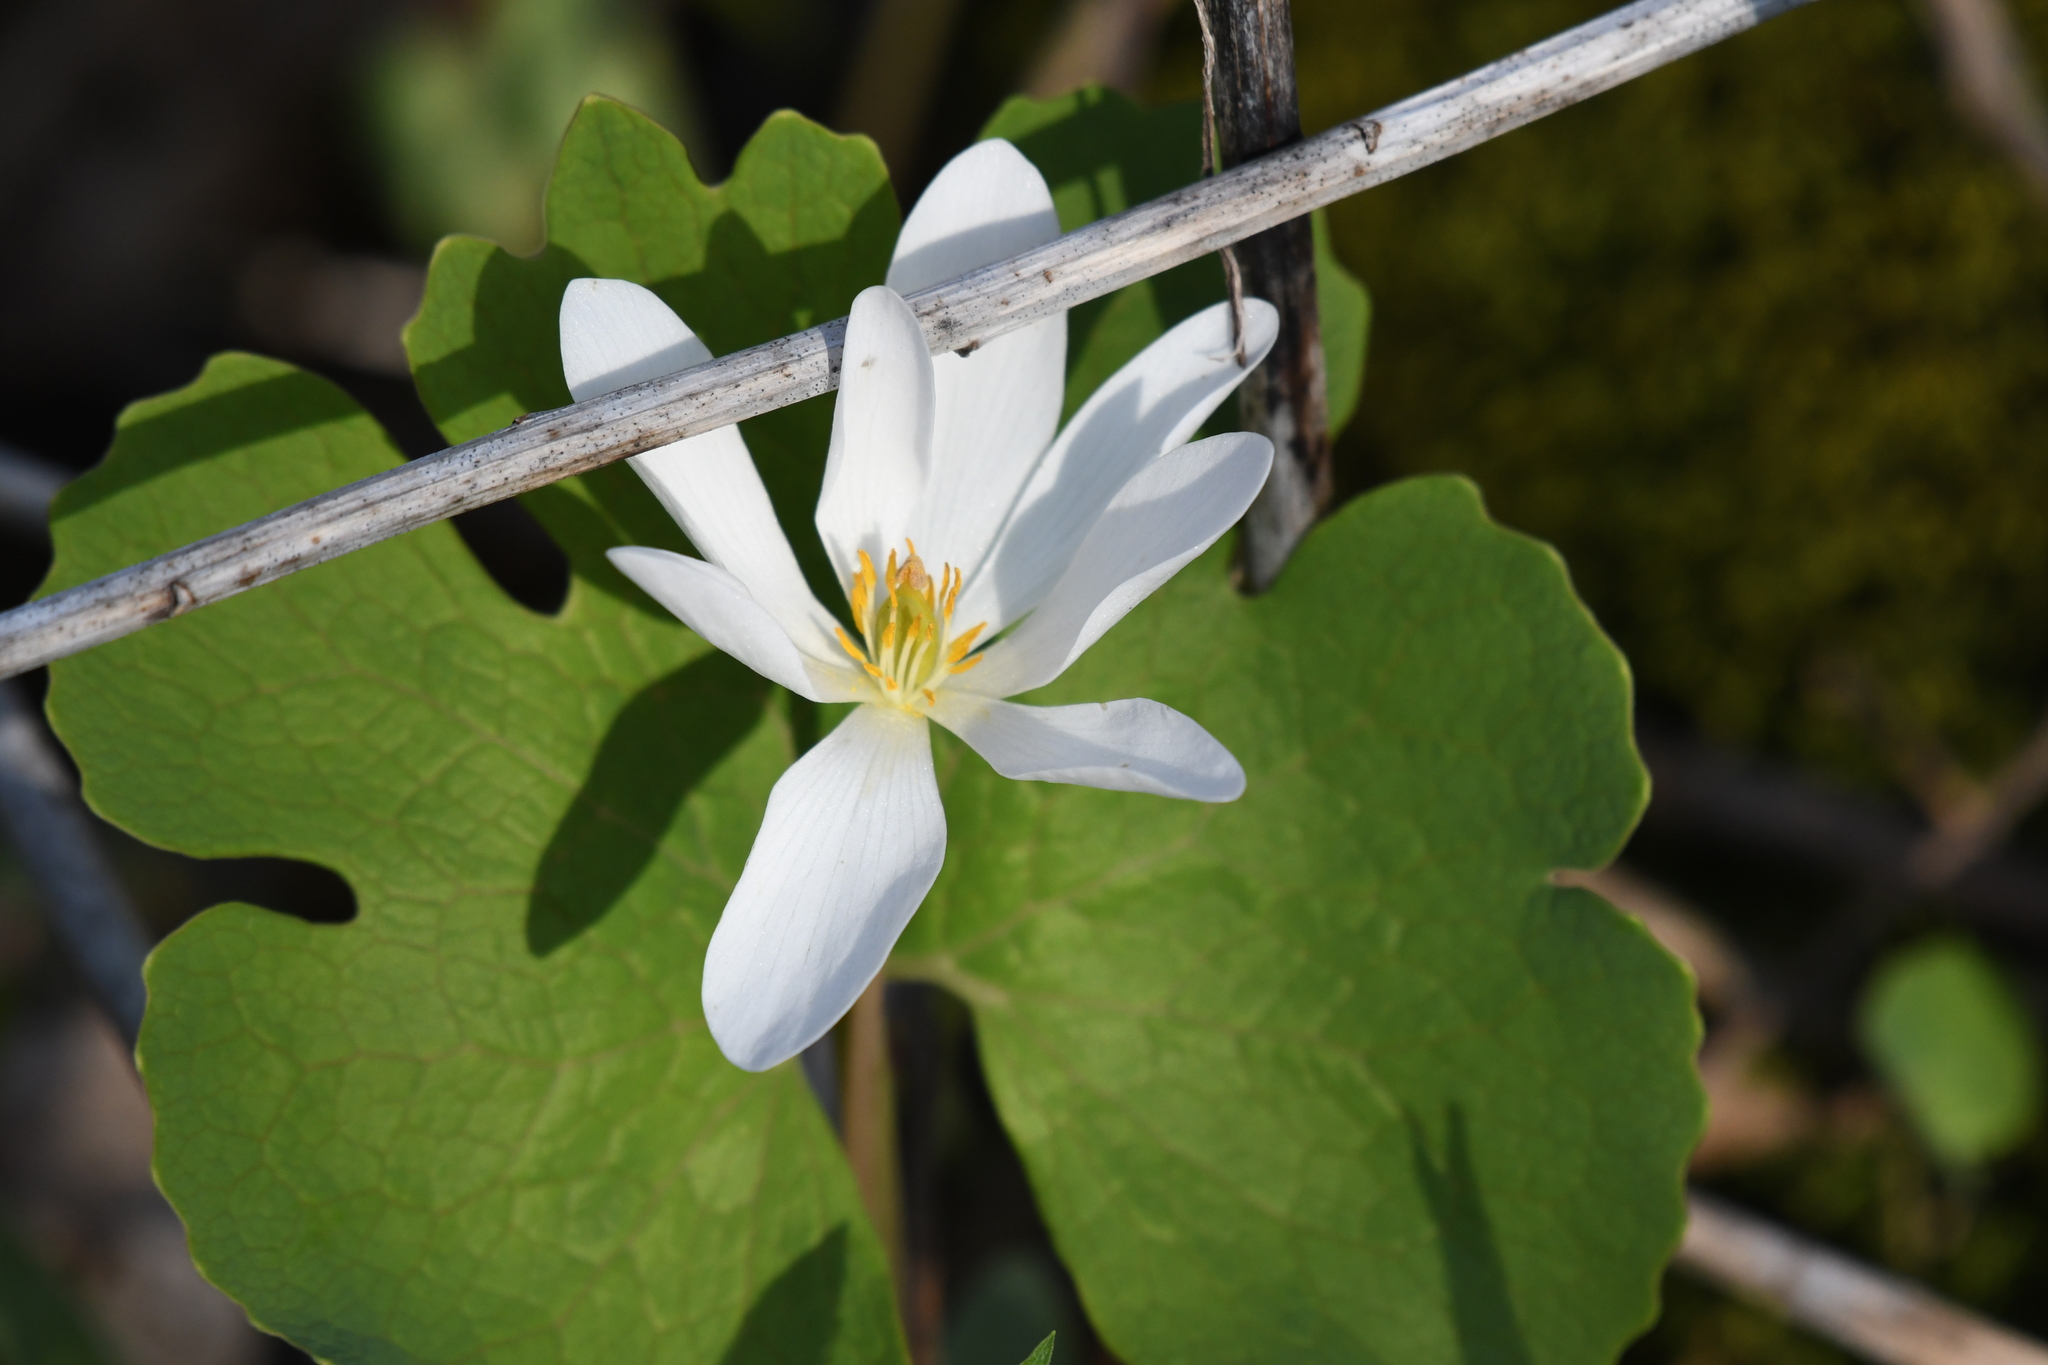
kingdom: Plantae
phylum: Tracheophyta
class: Magnoliopsida
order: Ranunculales
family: Papaveraceae
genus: Sanguinaria
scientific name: Sanguinaria canadensis
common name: Bloodroot
